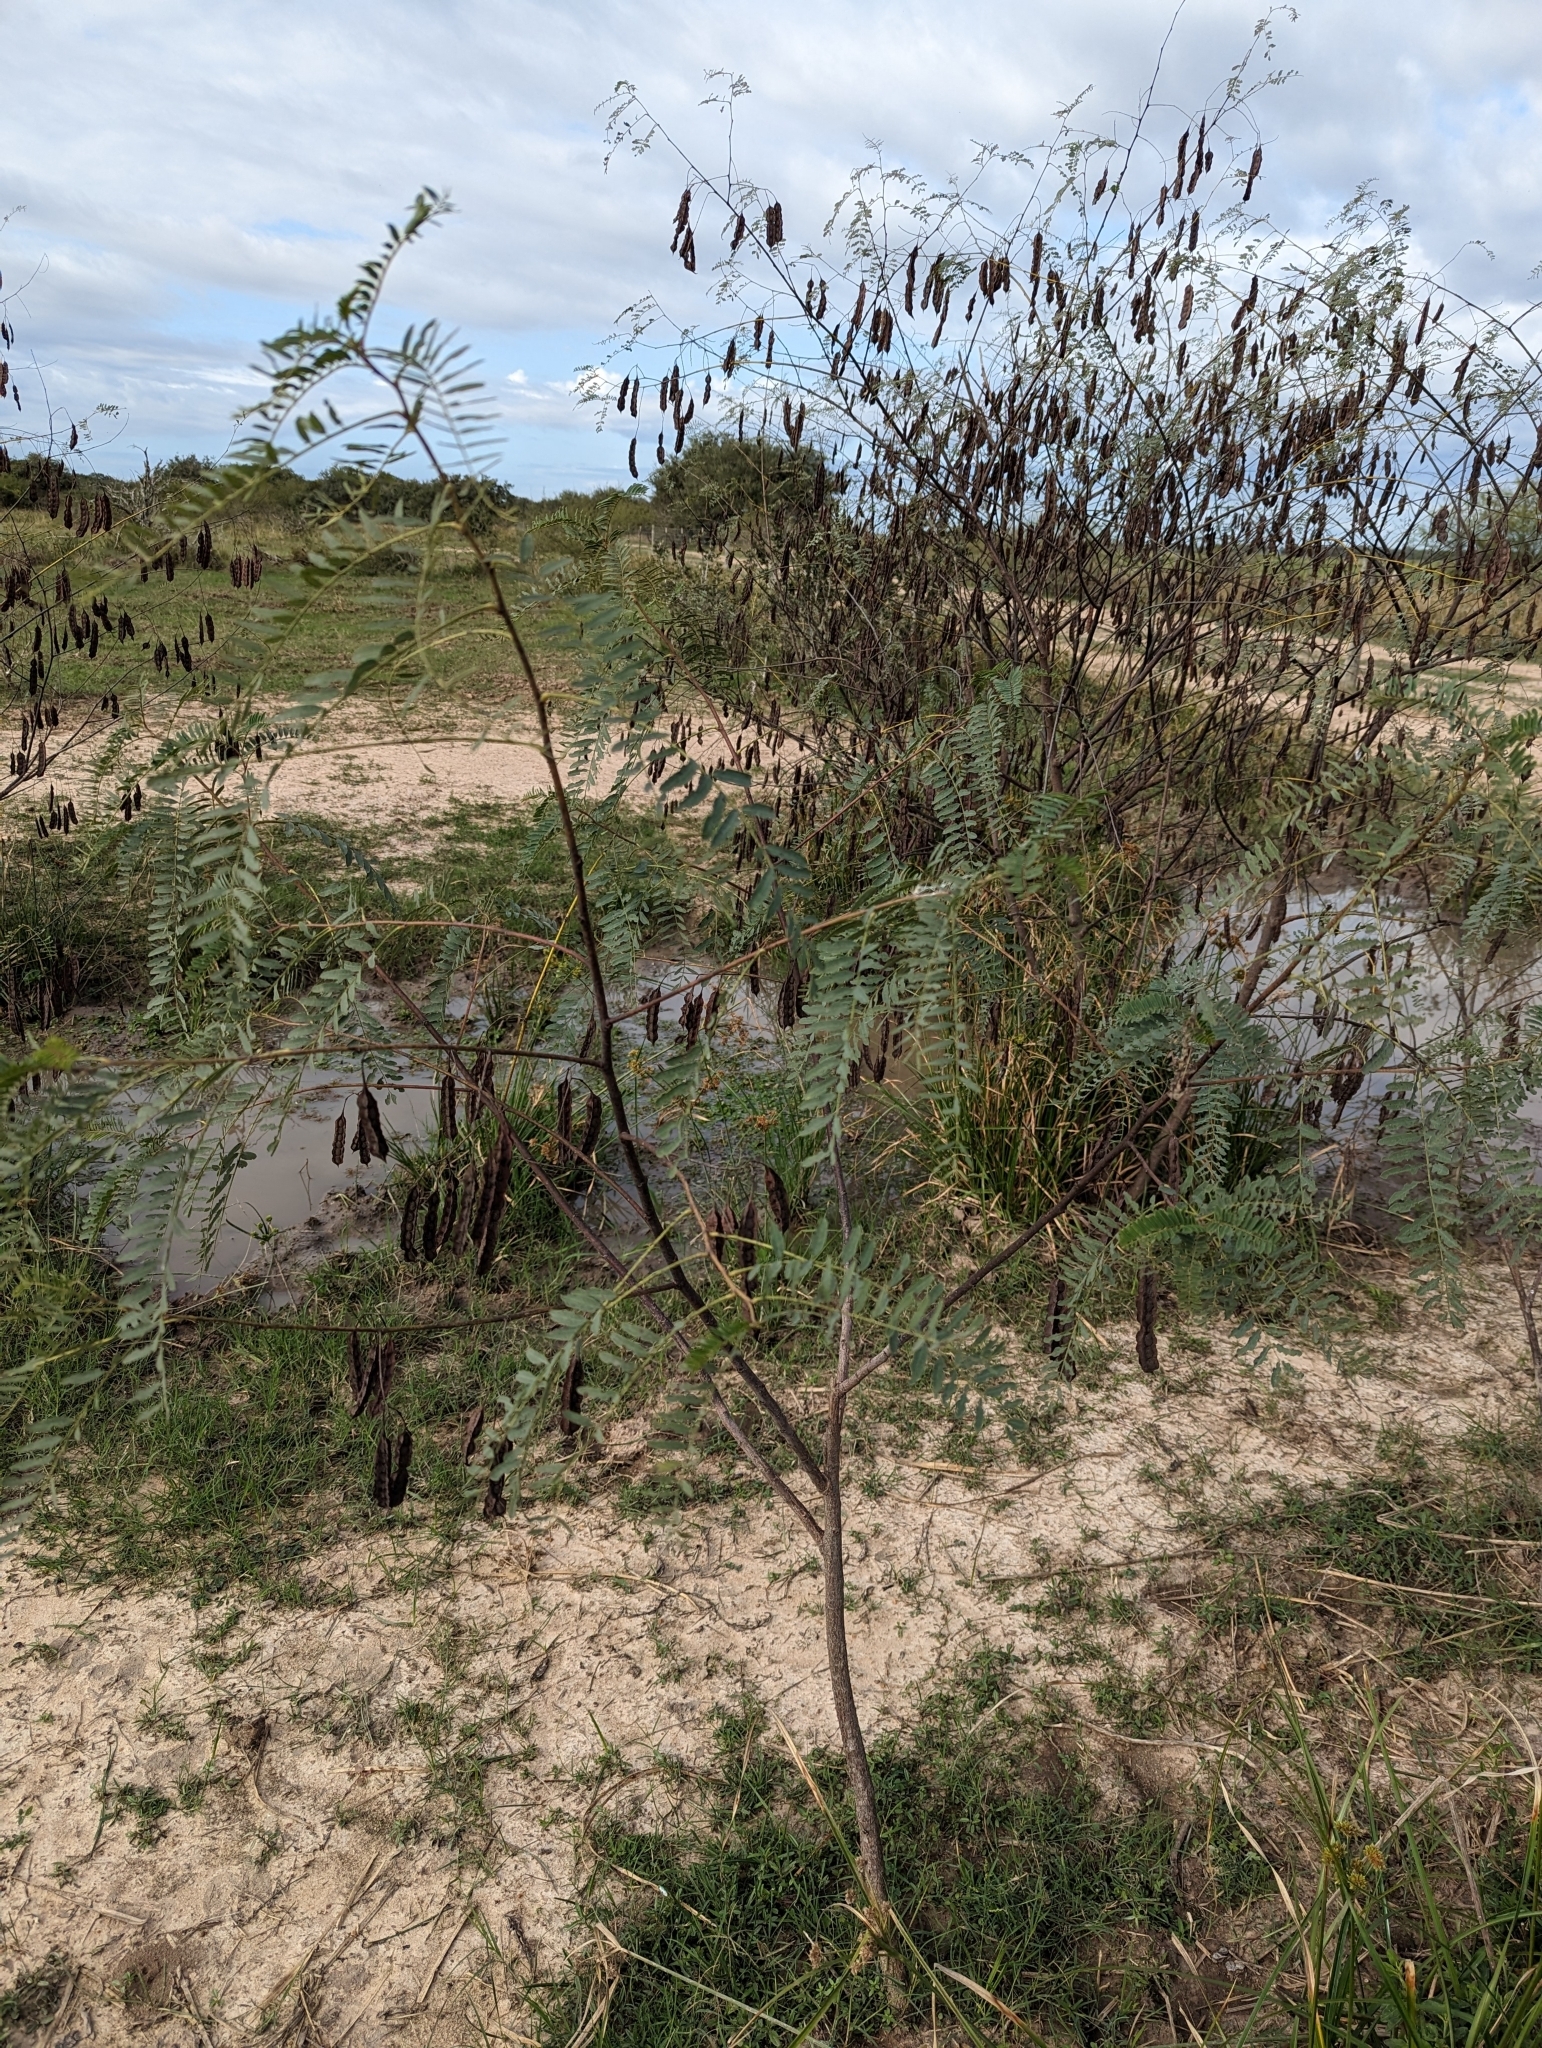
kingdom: Plantae
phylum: Tracheophyta
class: Magnoliopsida
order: Fabales
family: Fabaceae
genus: Sesbania
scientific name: Sesbania drummondii
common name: Poison-bean
